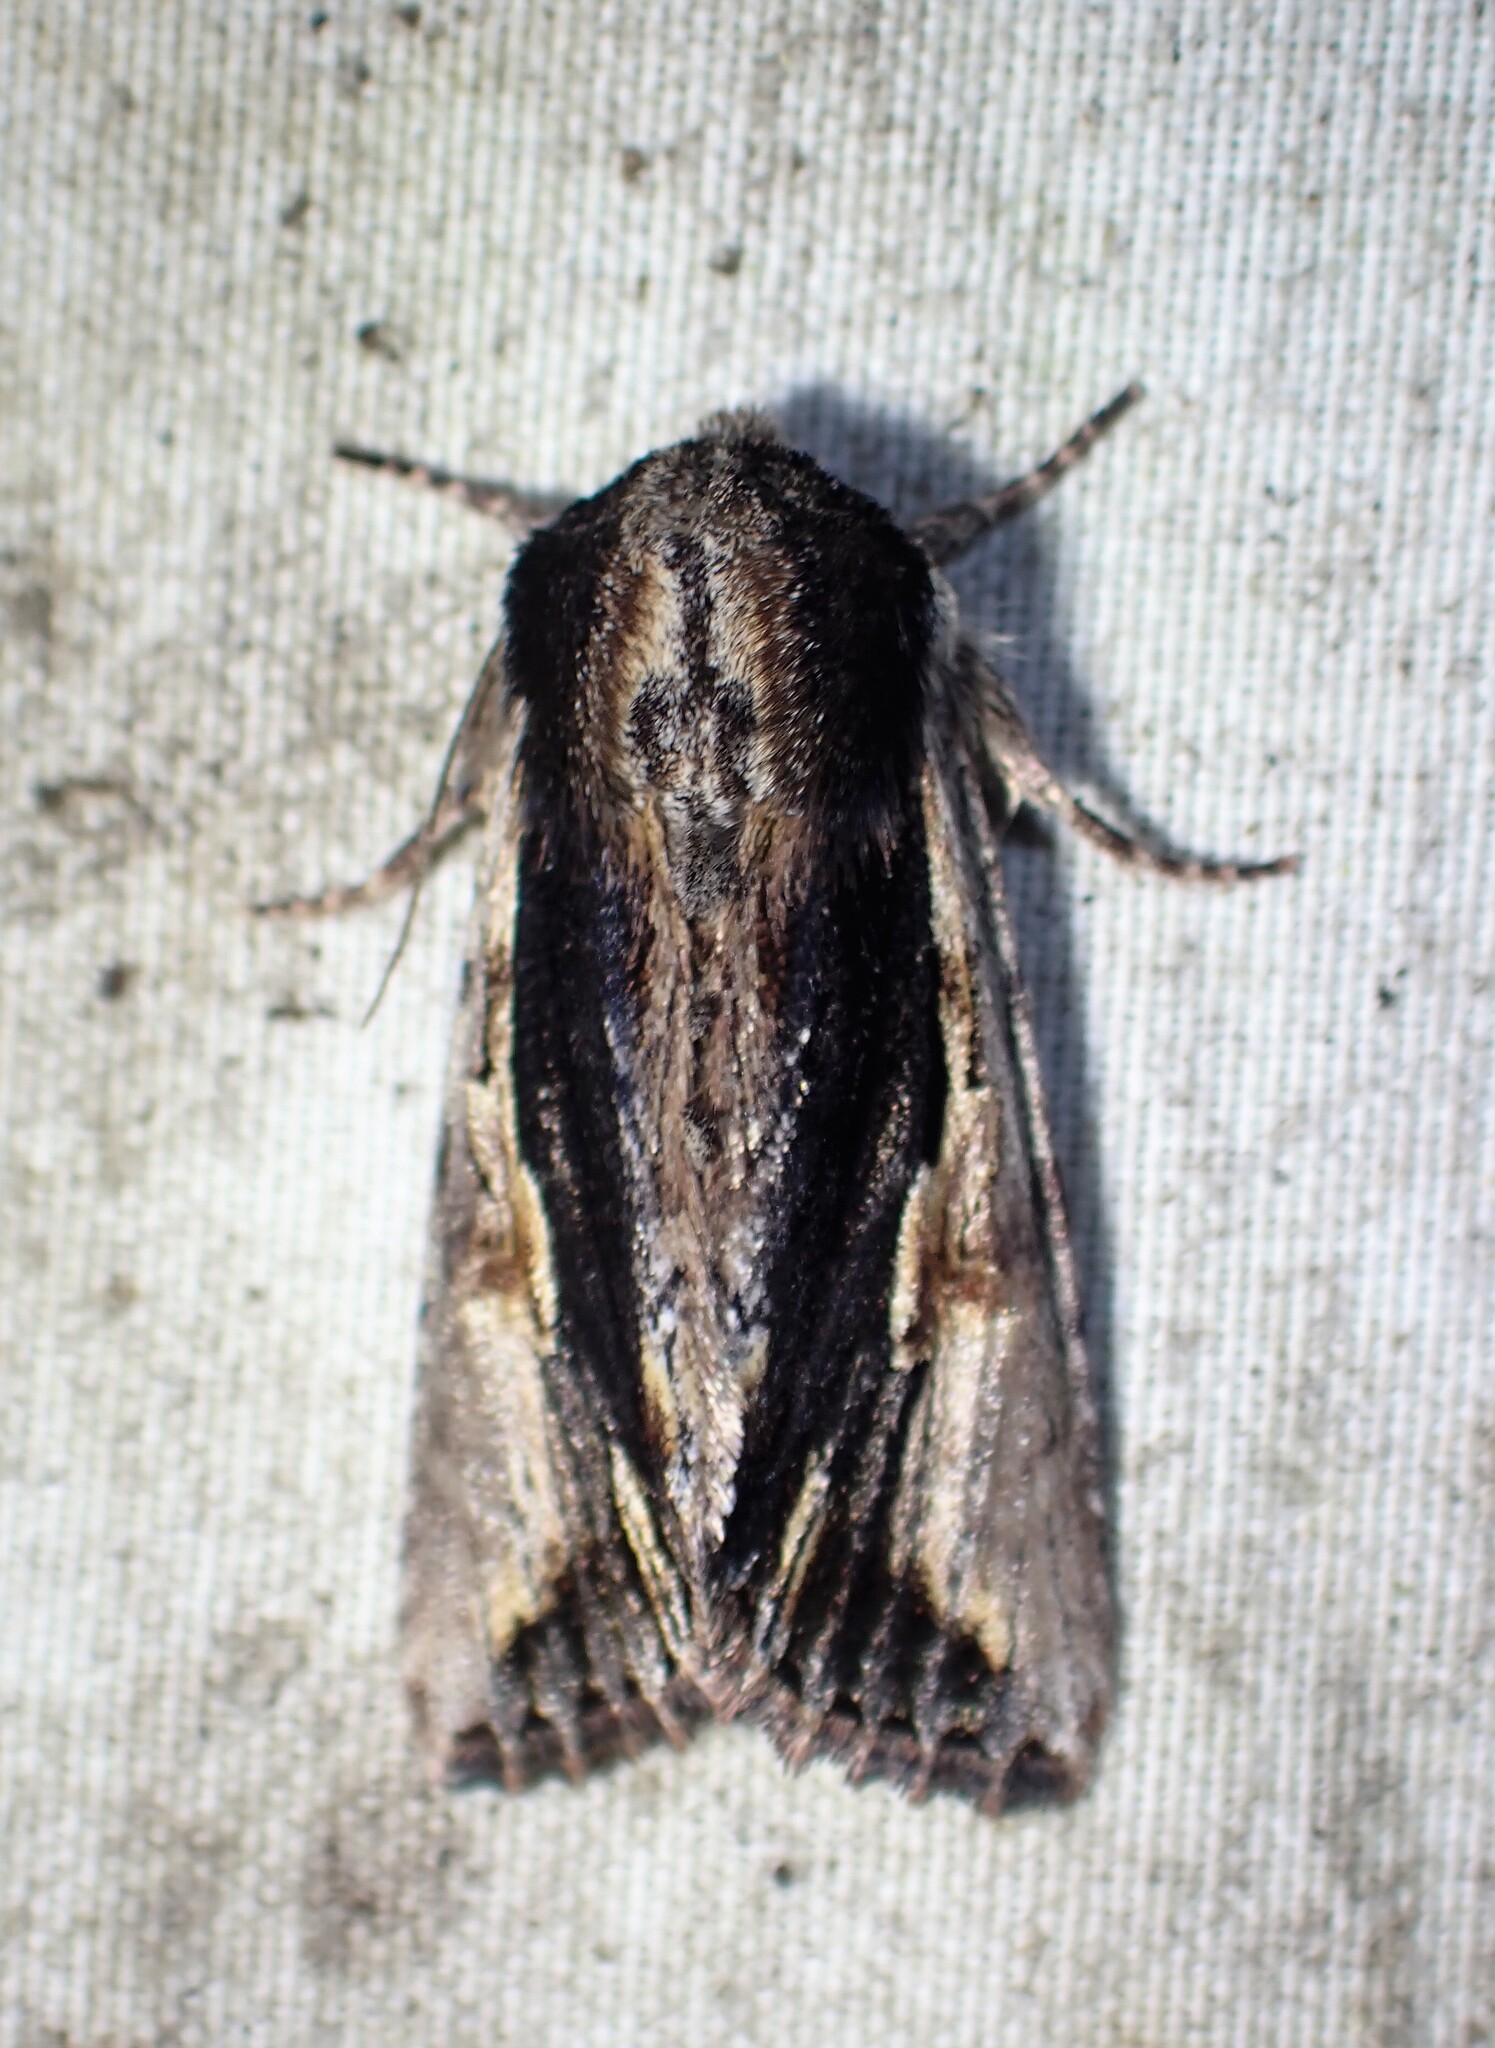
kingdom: Animalia
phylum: Arthropoda
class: Insecta
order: Lepidoptera
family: Noctuidae
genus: Achatia
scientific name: Achatia evicta
